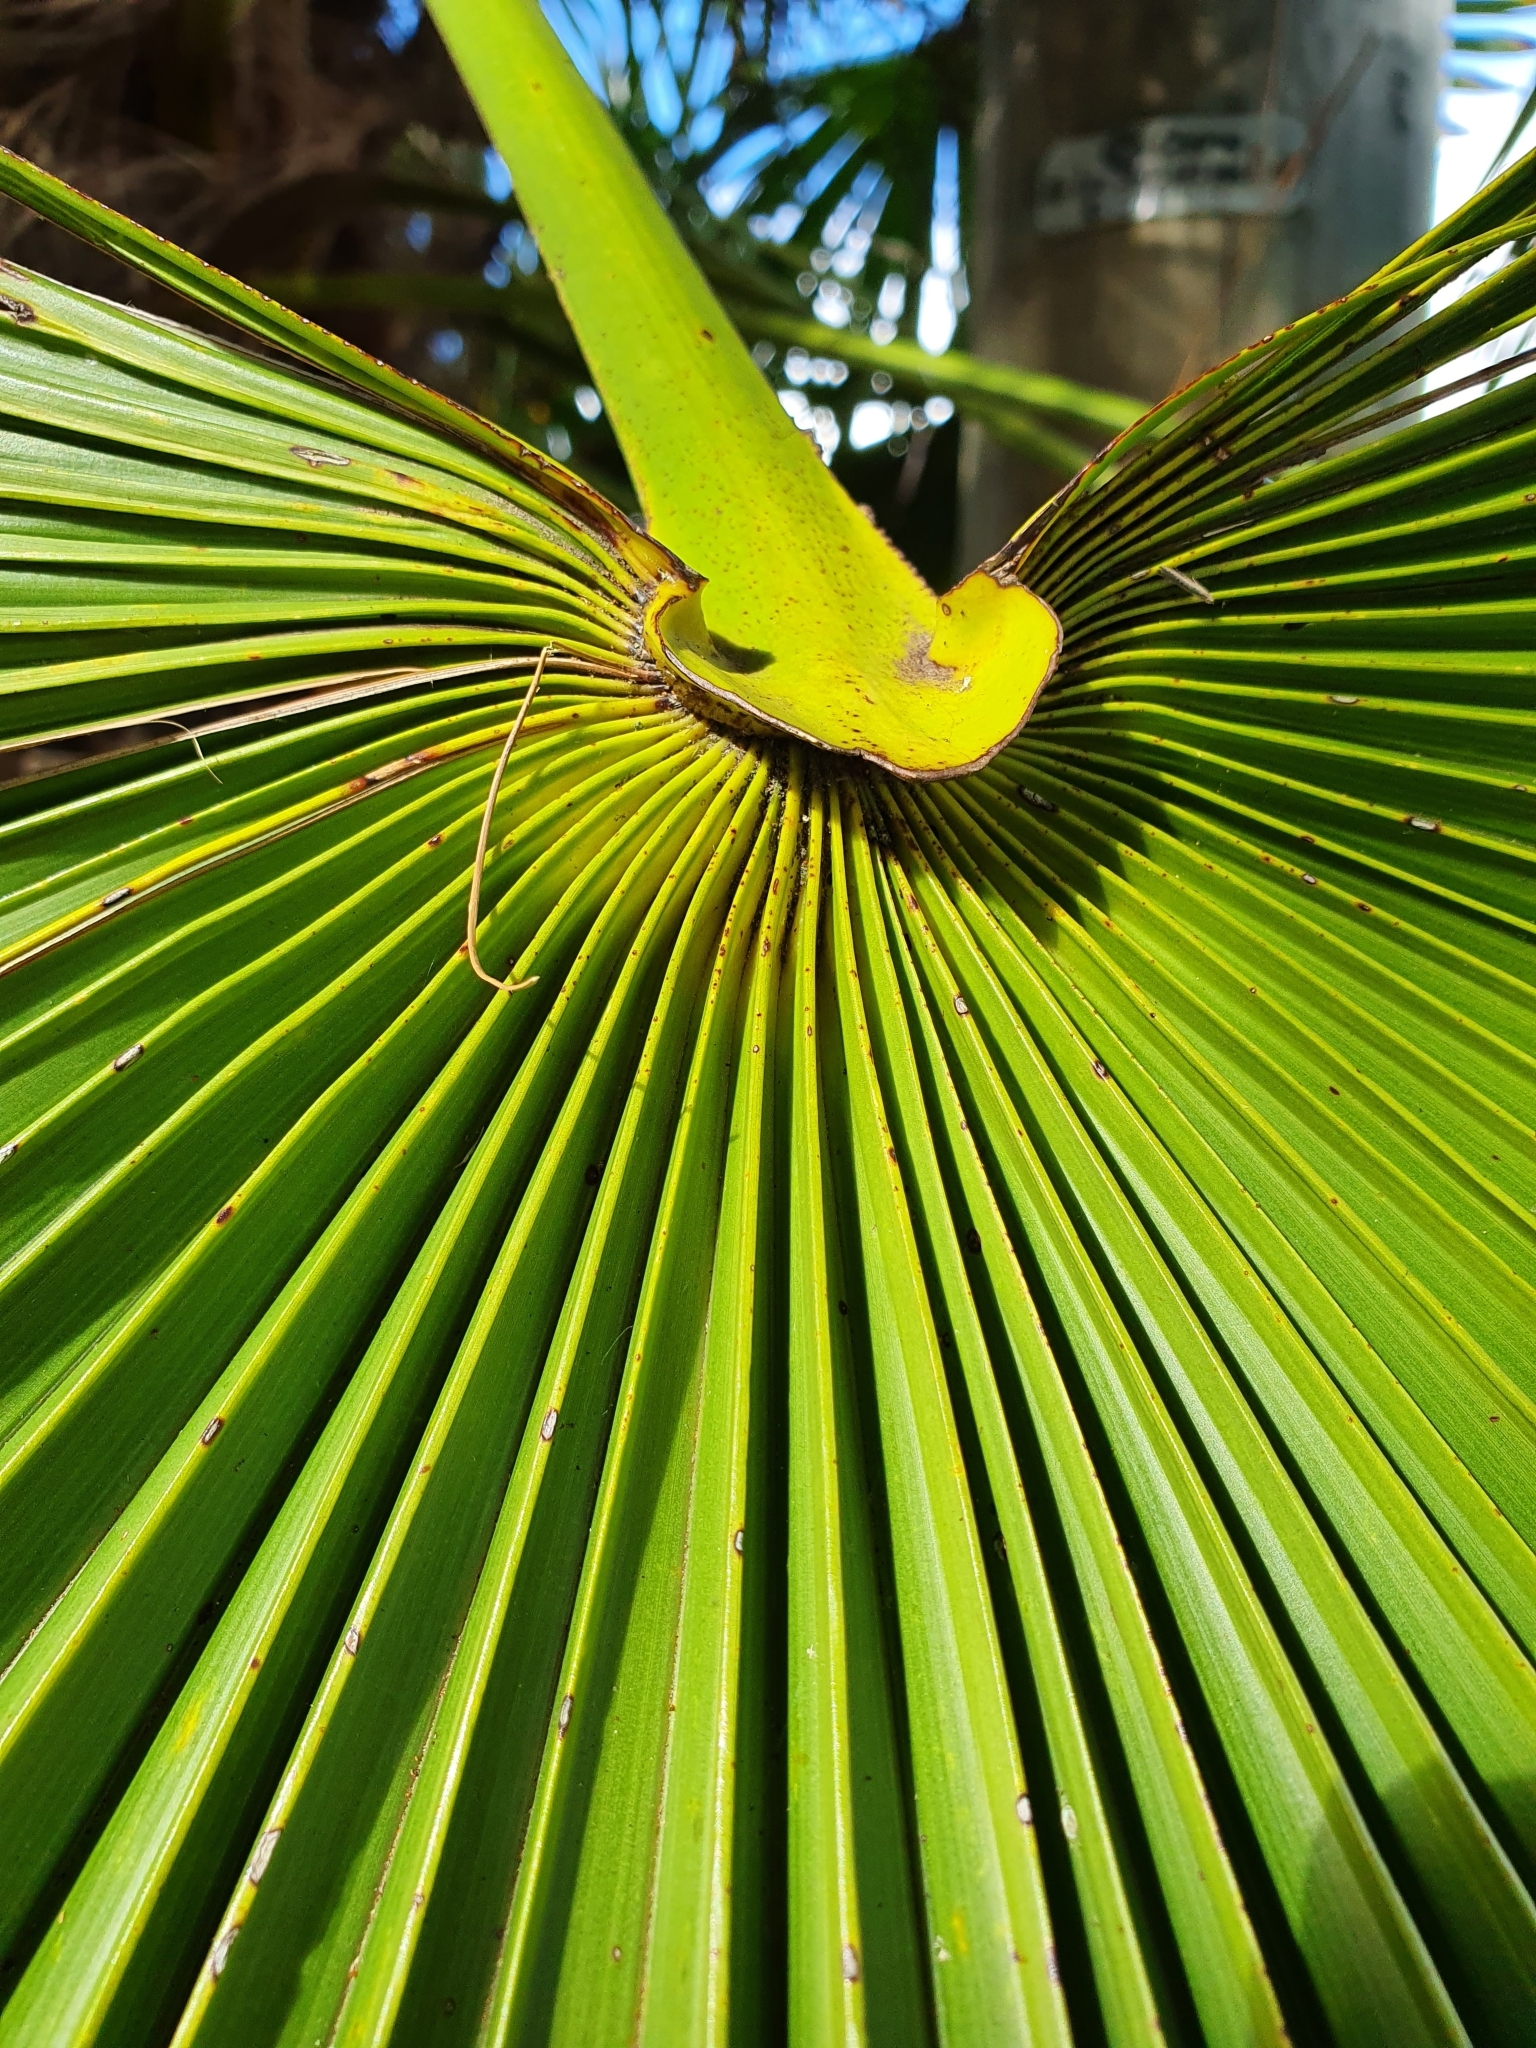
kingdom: Plantae
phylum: Tracheophyta
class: Liliopsida
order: Arecales
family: Arecaceae
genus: Trachycarpus
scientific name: Trachycarpus fortunei
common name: Chusan palm
